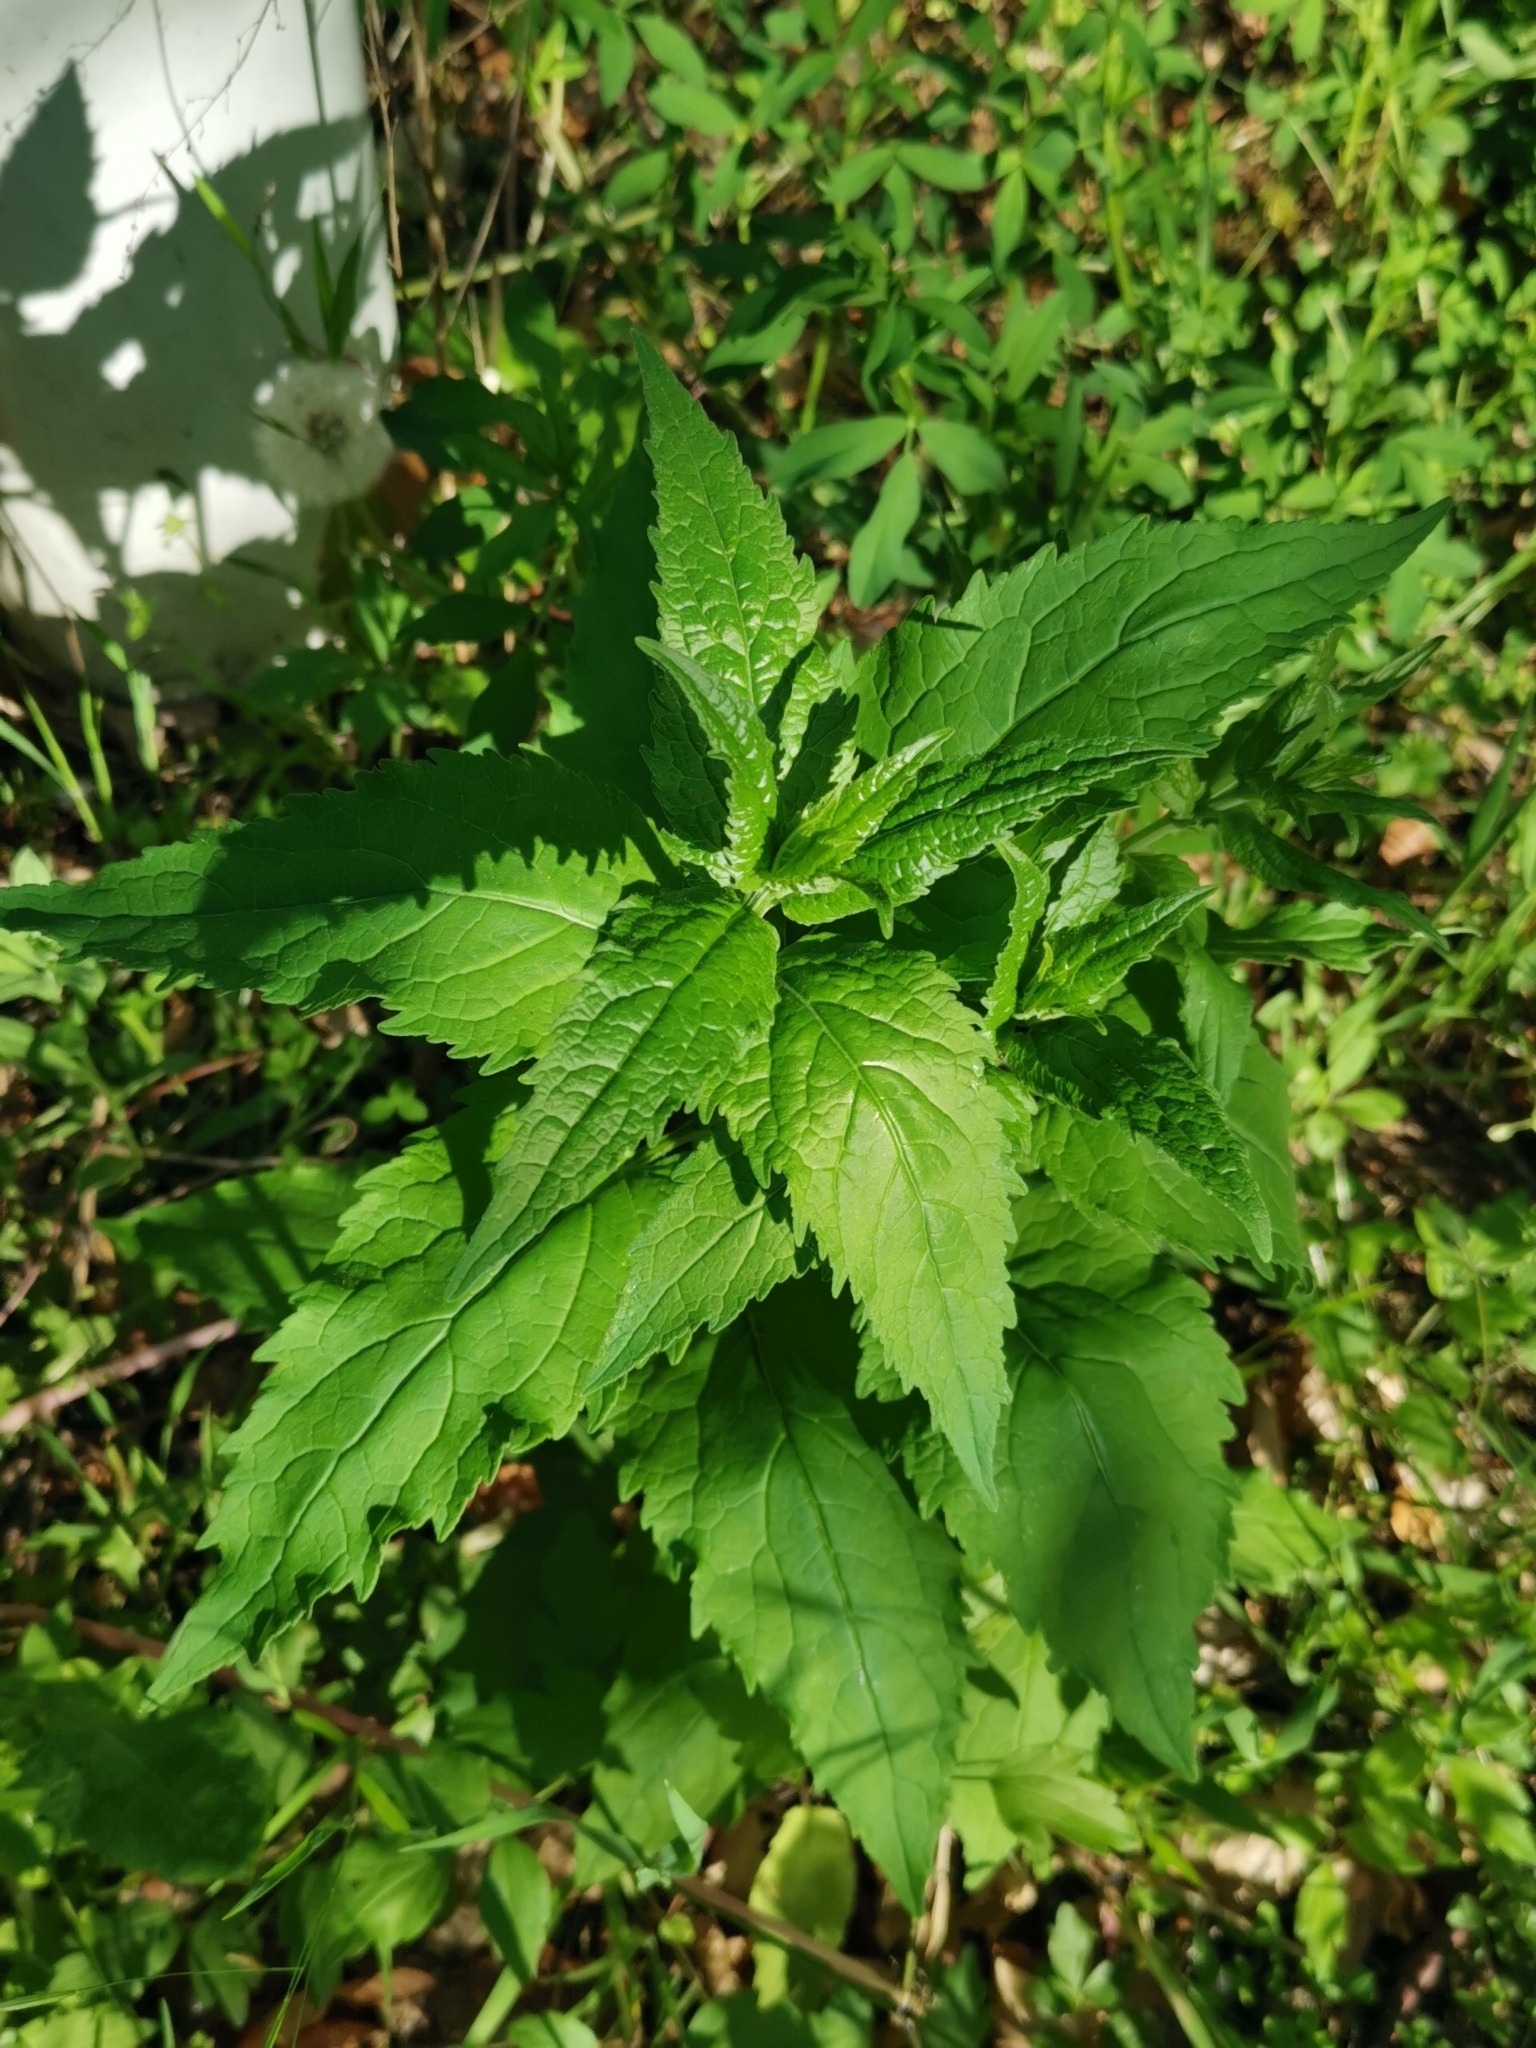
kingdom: Plantae
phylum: Tracheophyta
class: Magnoliopsida
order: Asterales
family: Campanulaceae
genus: Campanula
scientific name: Campanula trachelium
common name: Nettle-leaved bellflower
